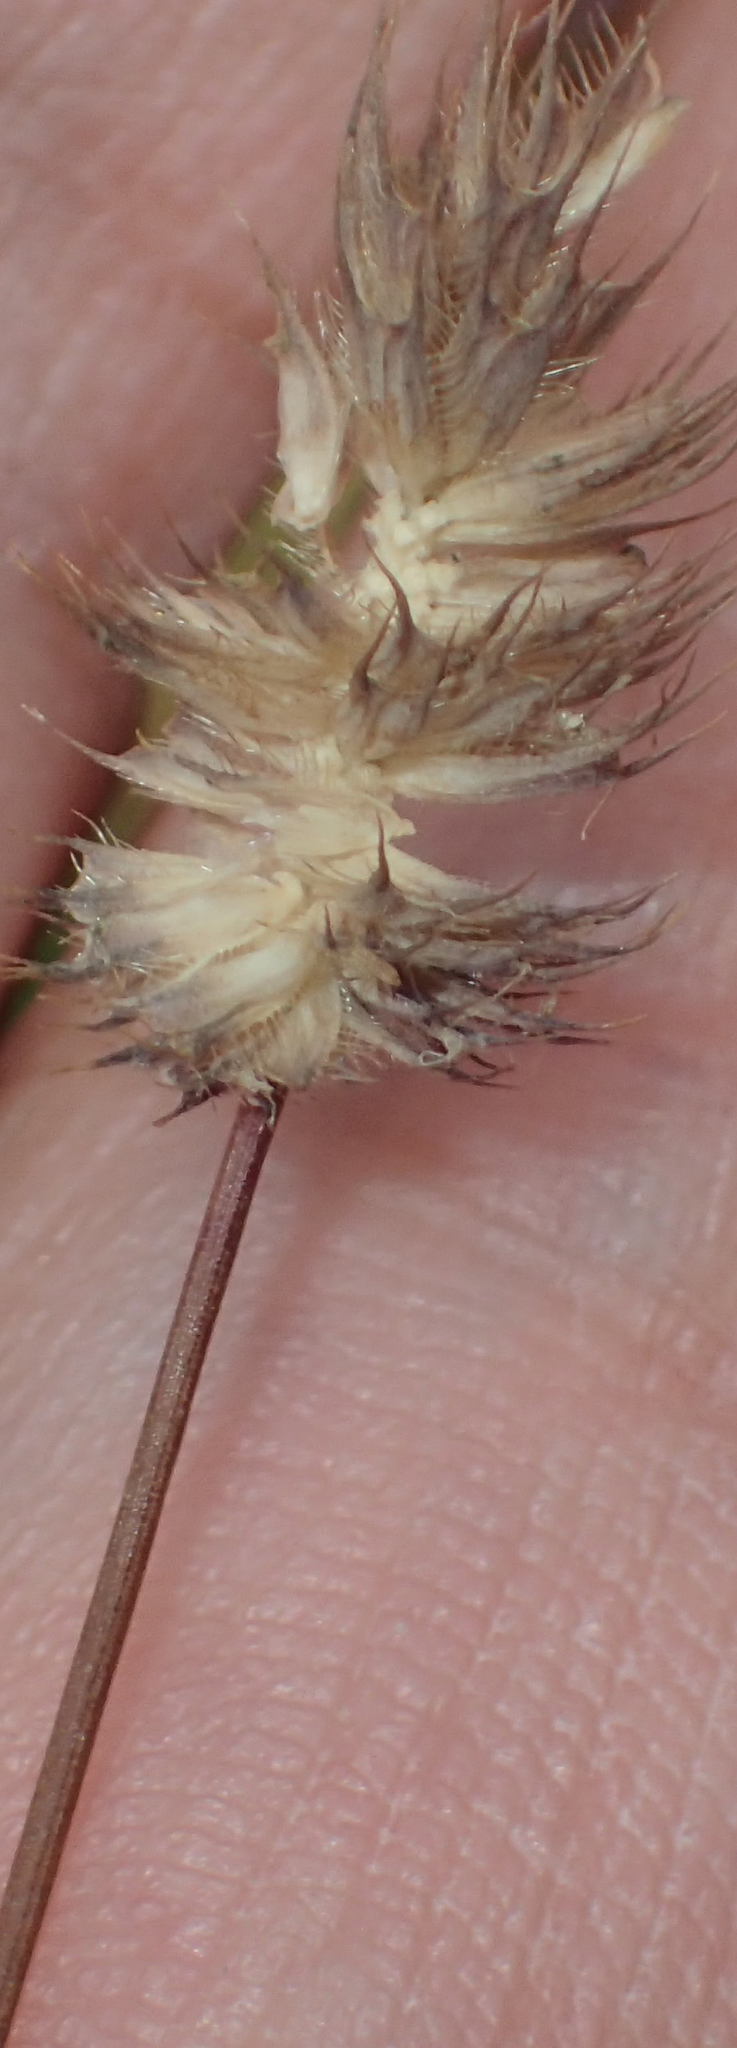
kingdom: Plantae
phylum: Tracheophyta
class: Liliopsida
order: Poales
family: Poaceae
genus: Phleum
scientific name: Phleum alpinum
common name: Alpine cat's-tail
